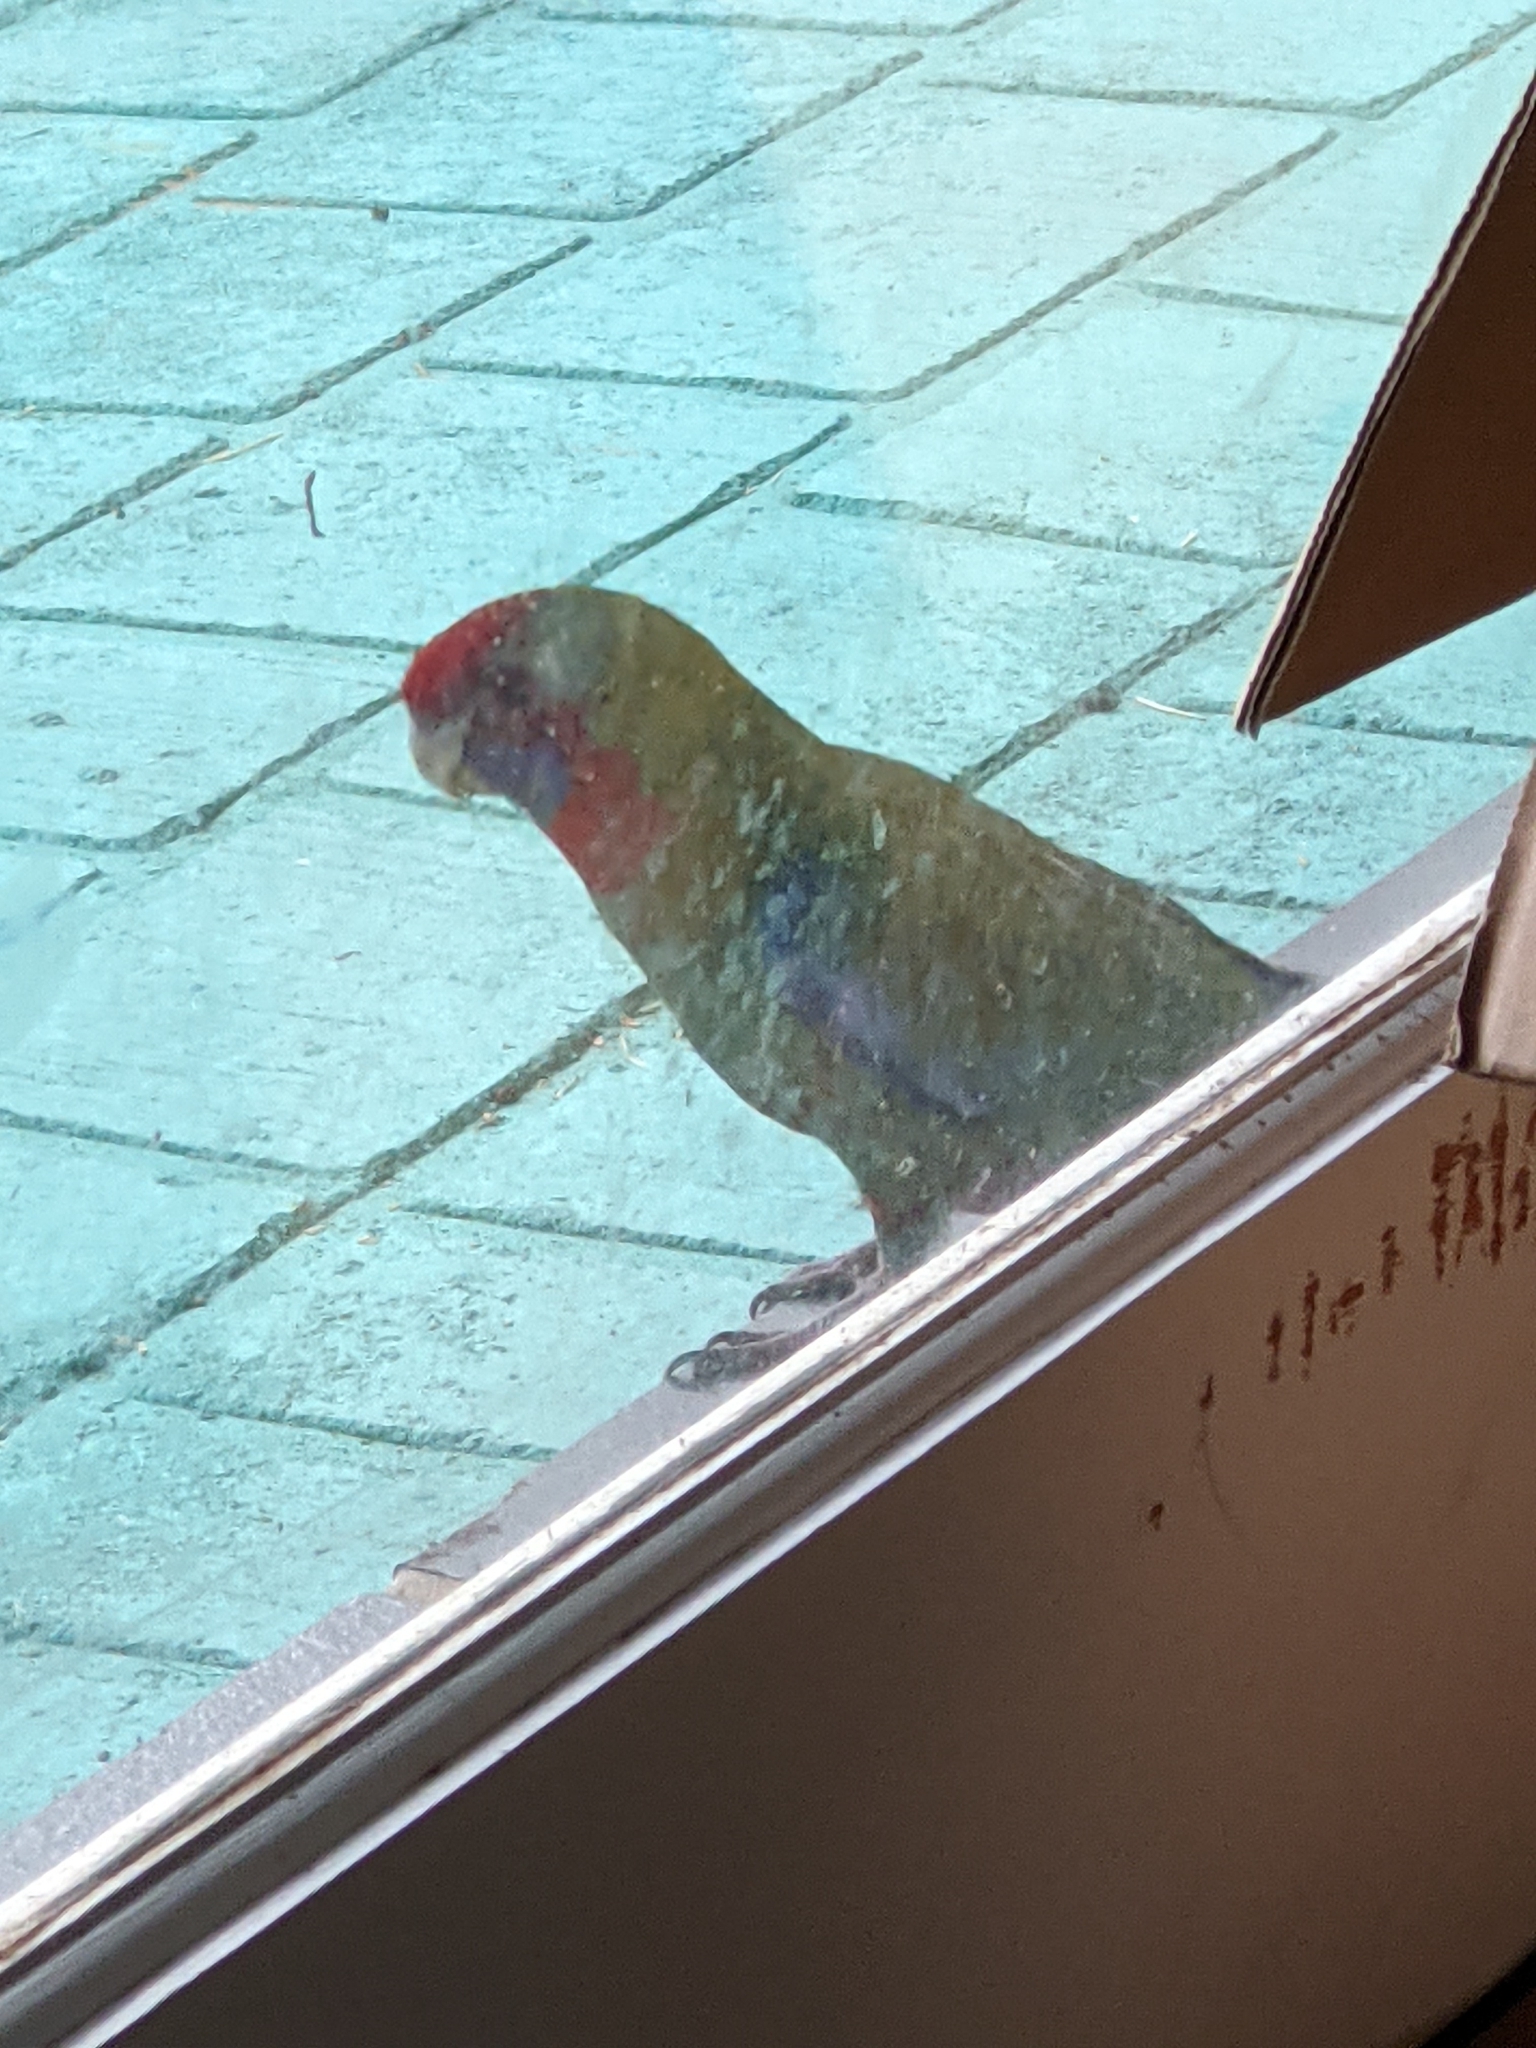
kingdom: Animalia
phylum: Chordata
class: Aves
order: Psittaciformes
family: Psittacidae
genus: Platycercus
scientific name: Platycercus elegans
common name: Crimson rosella
